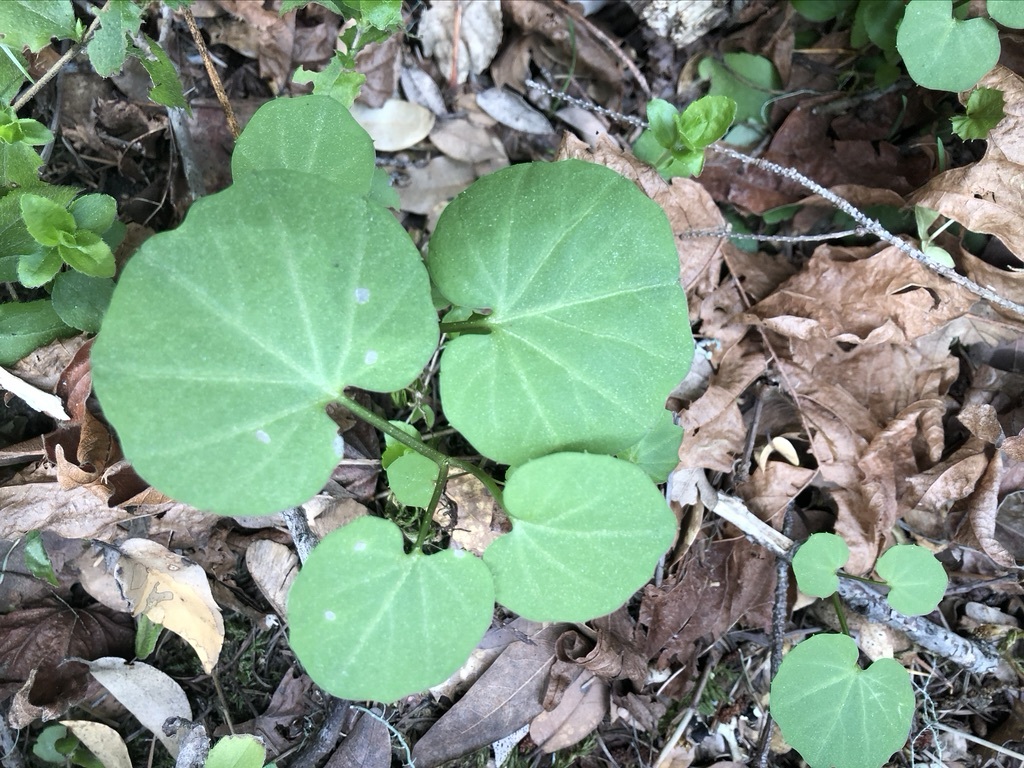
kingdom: Plantae
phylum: Tracheophyta
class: Magnoliopsida
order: Brassicales
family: Brassicaceae
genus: Cardamine
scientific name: Cardamine californica
